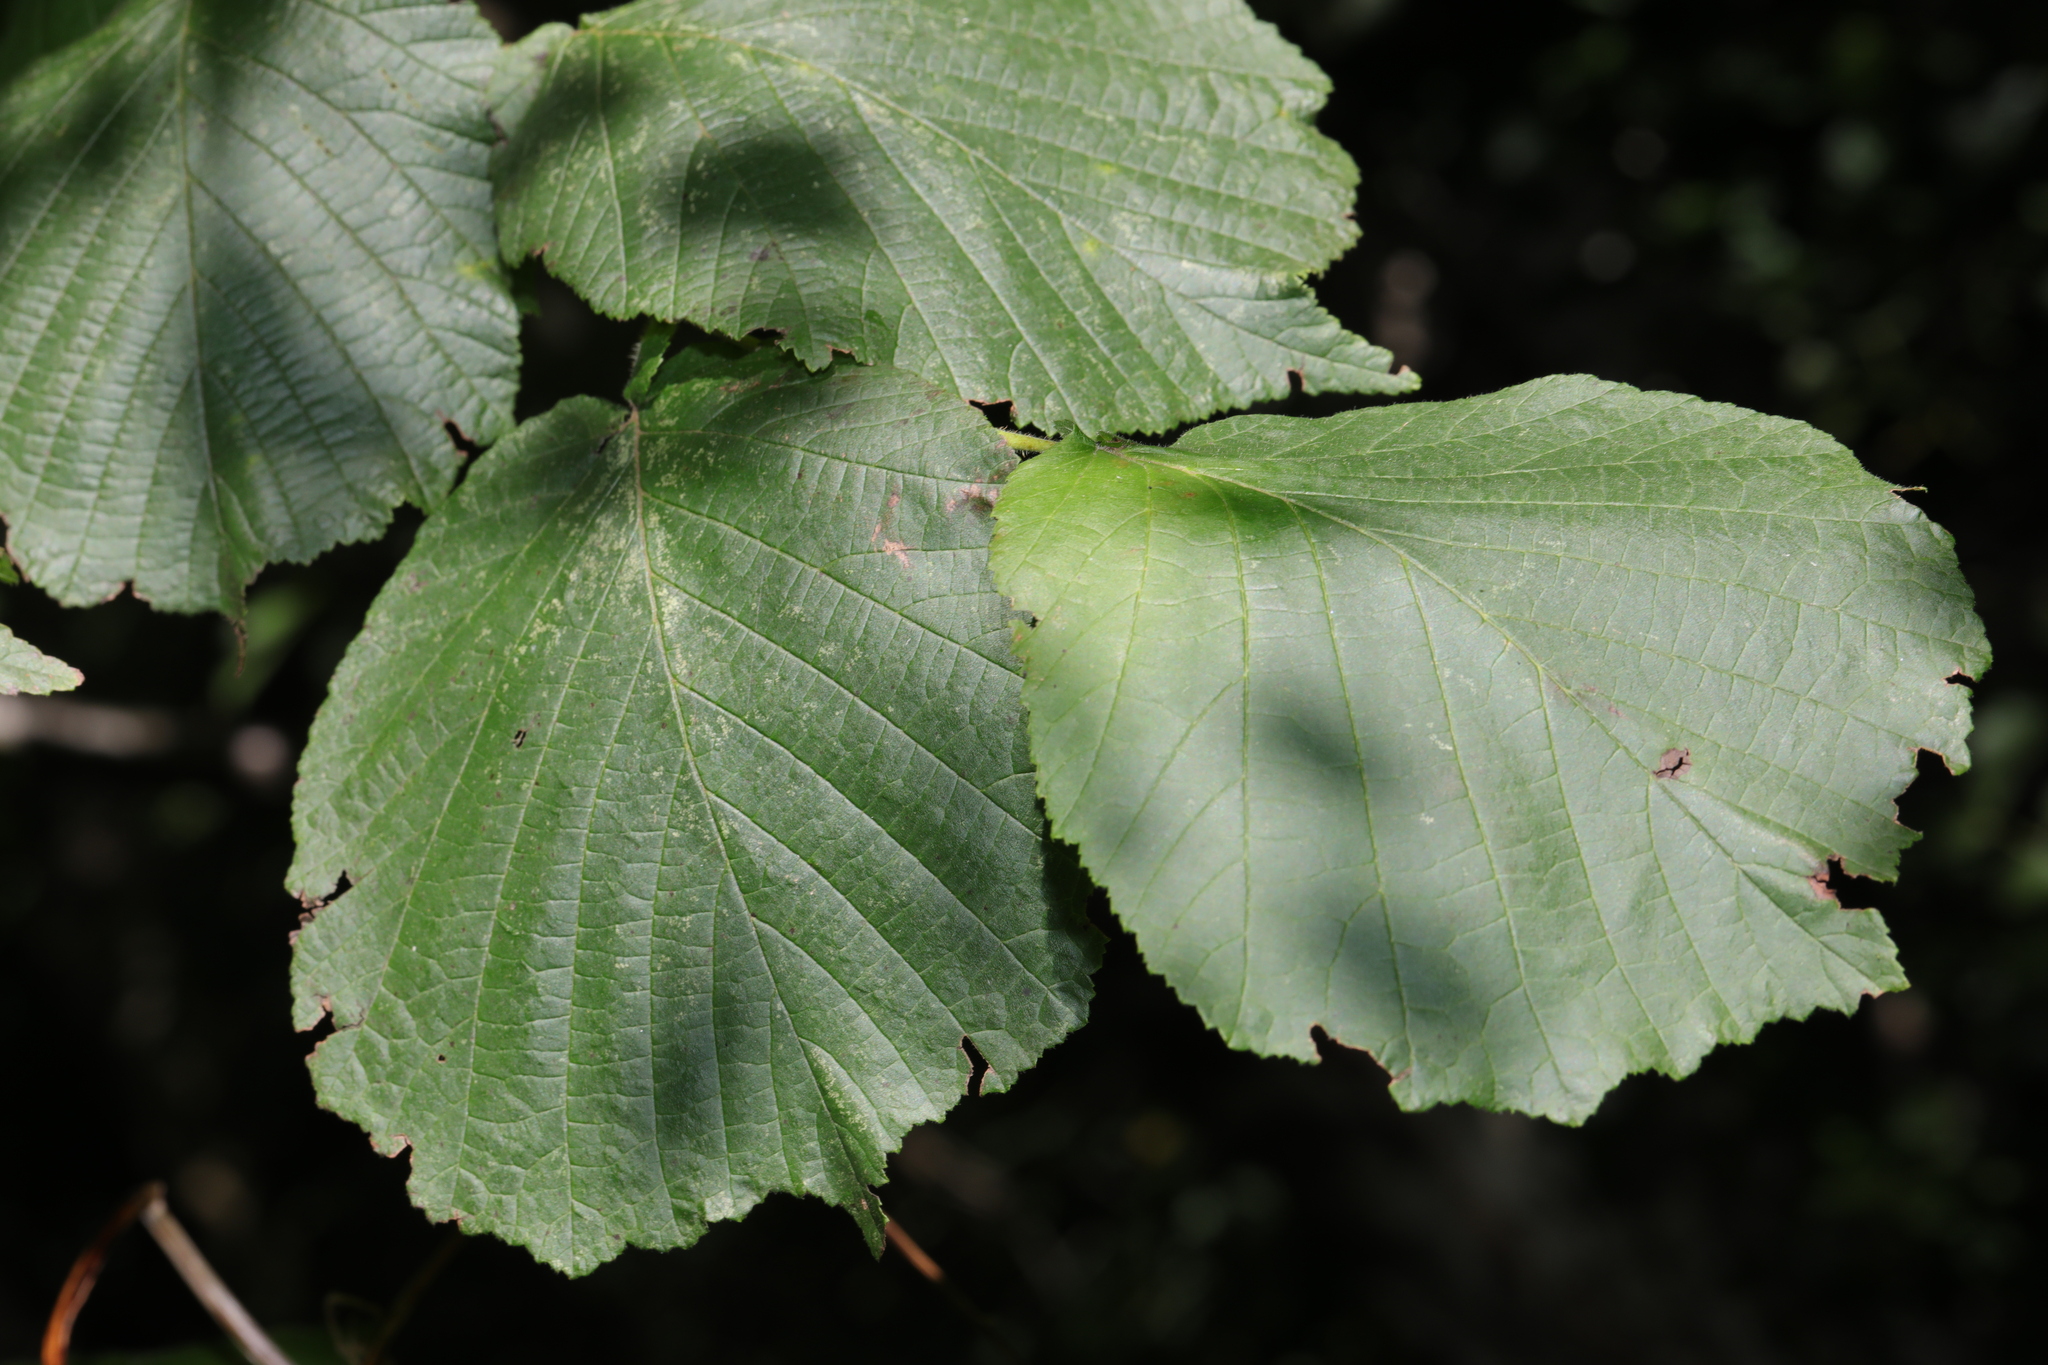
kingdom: Plantae
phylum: Tracheophyta
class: Magnoliopsida
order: Fagales
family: Betulaceae
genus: Corylus
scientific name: Corylus avellana
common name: European hazel
